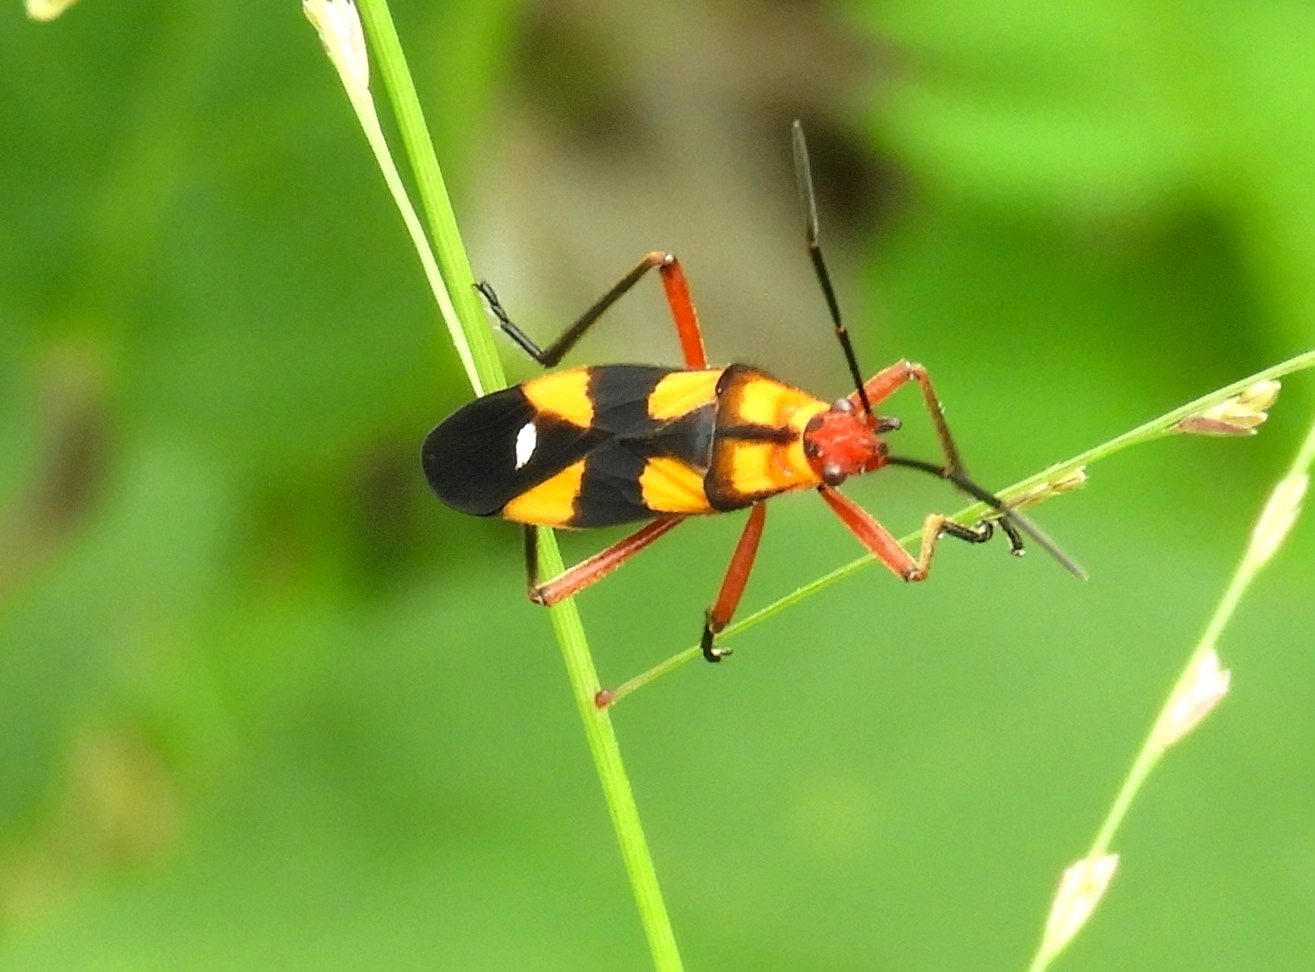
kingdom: Animalia
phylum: Arthropoda
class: Insecta
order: Hemiptera
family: Lygaeidae
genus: Oncopeltus
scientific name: Oncopeltus guttaloides
